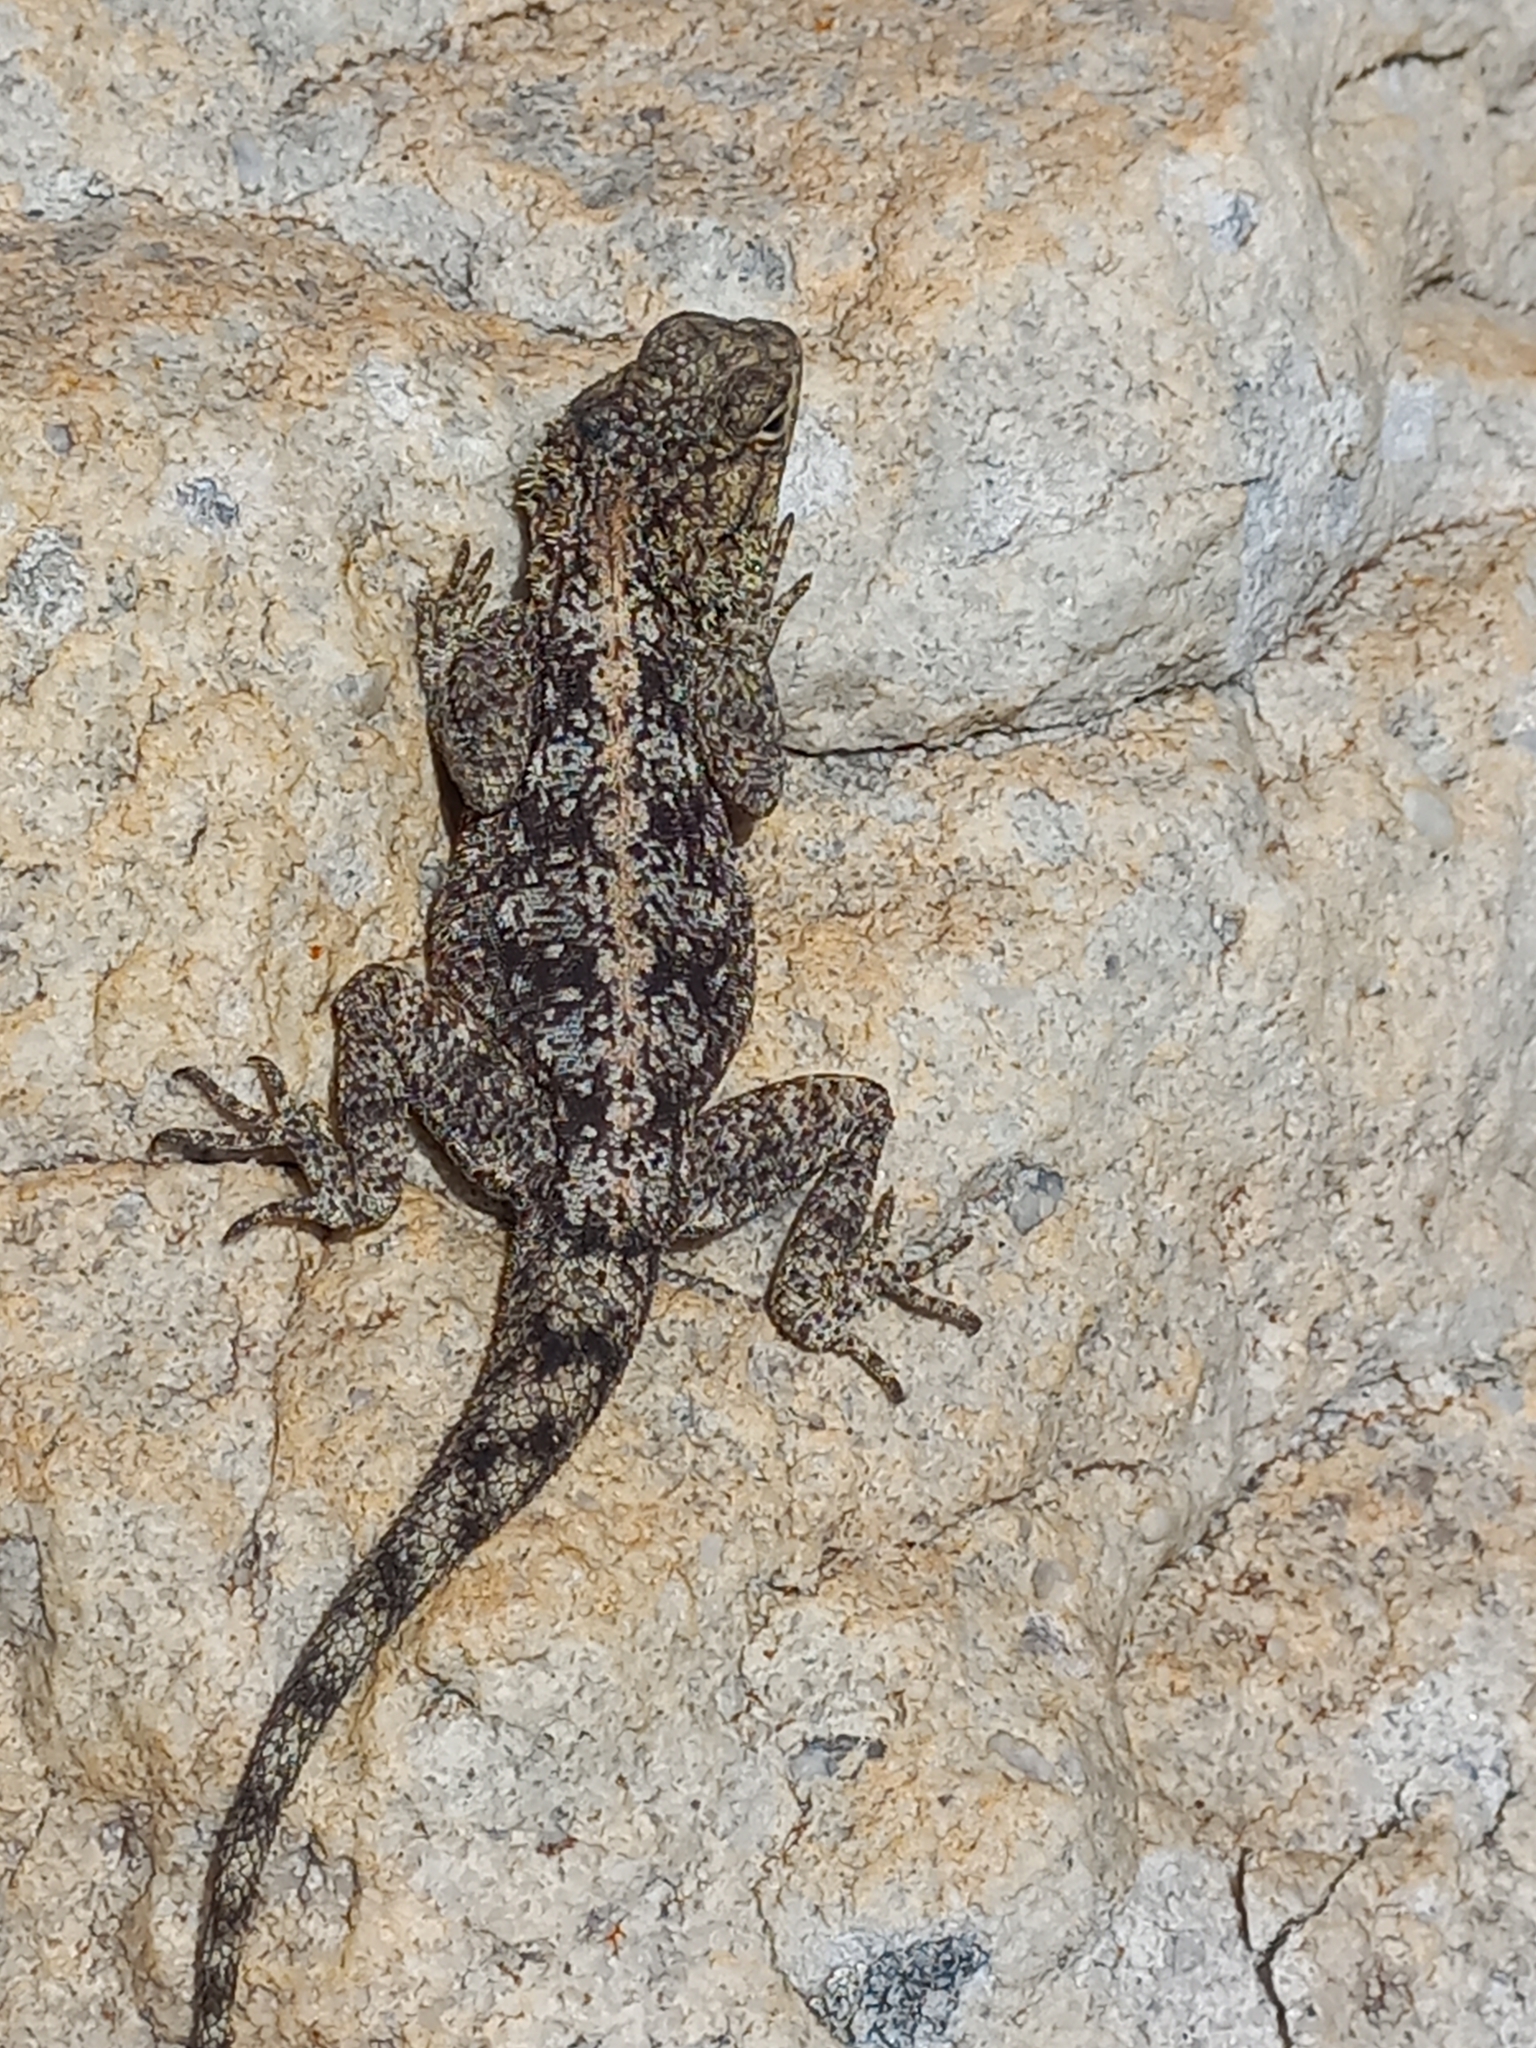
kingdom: Animalia
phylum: Chordata
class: Squamata
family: Agamidae
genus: Agama
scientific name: Agama atra
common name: Southern african rock agama
